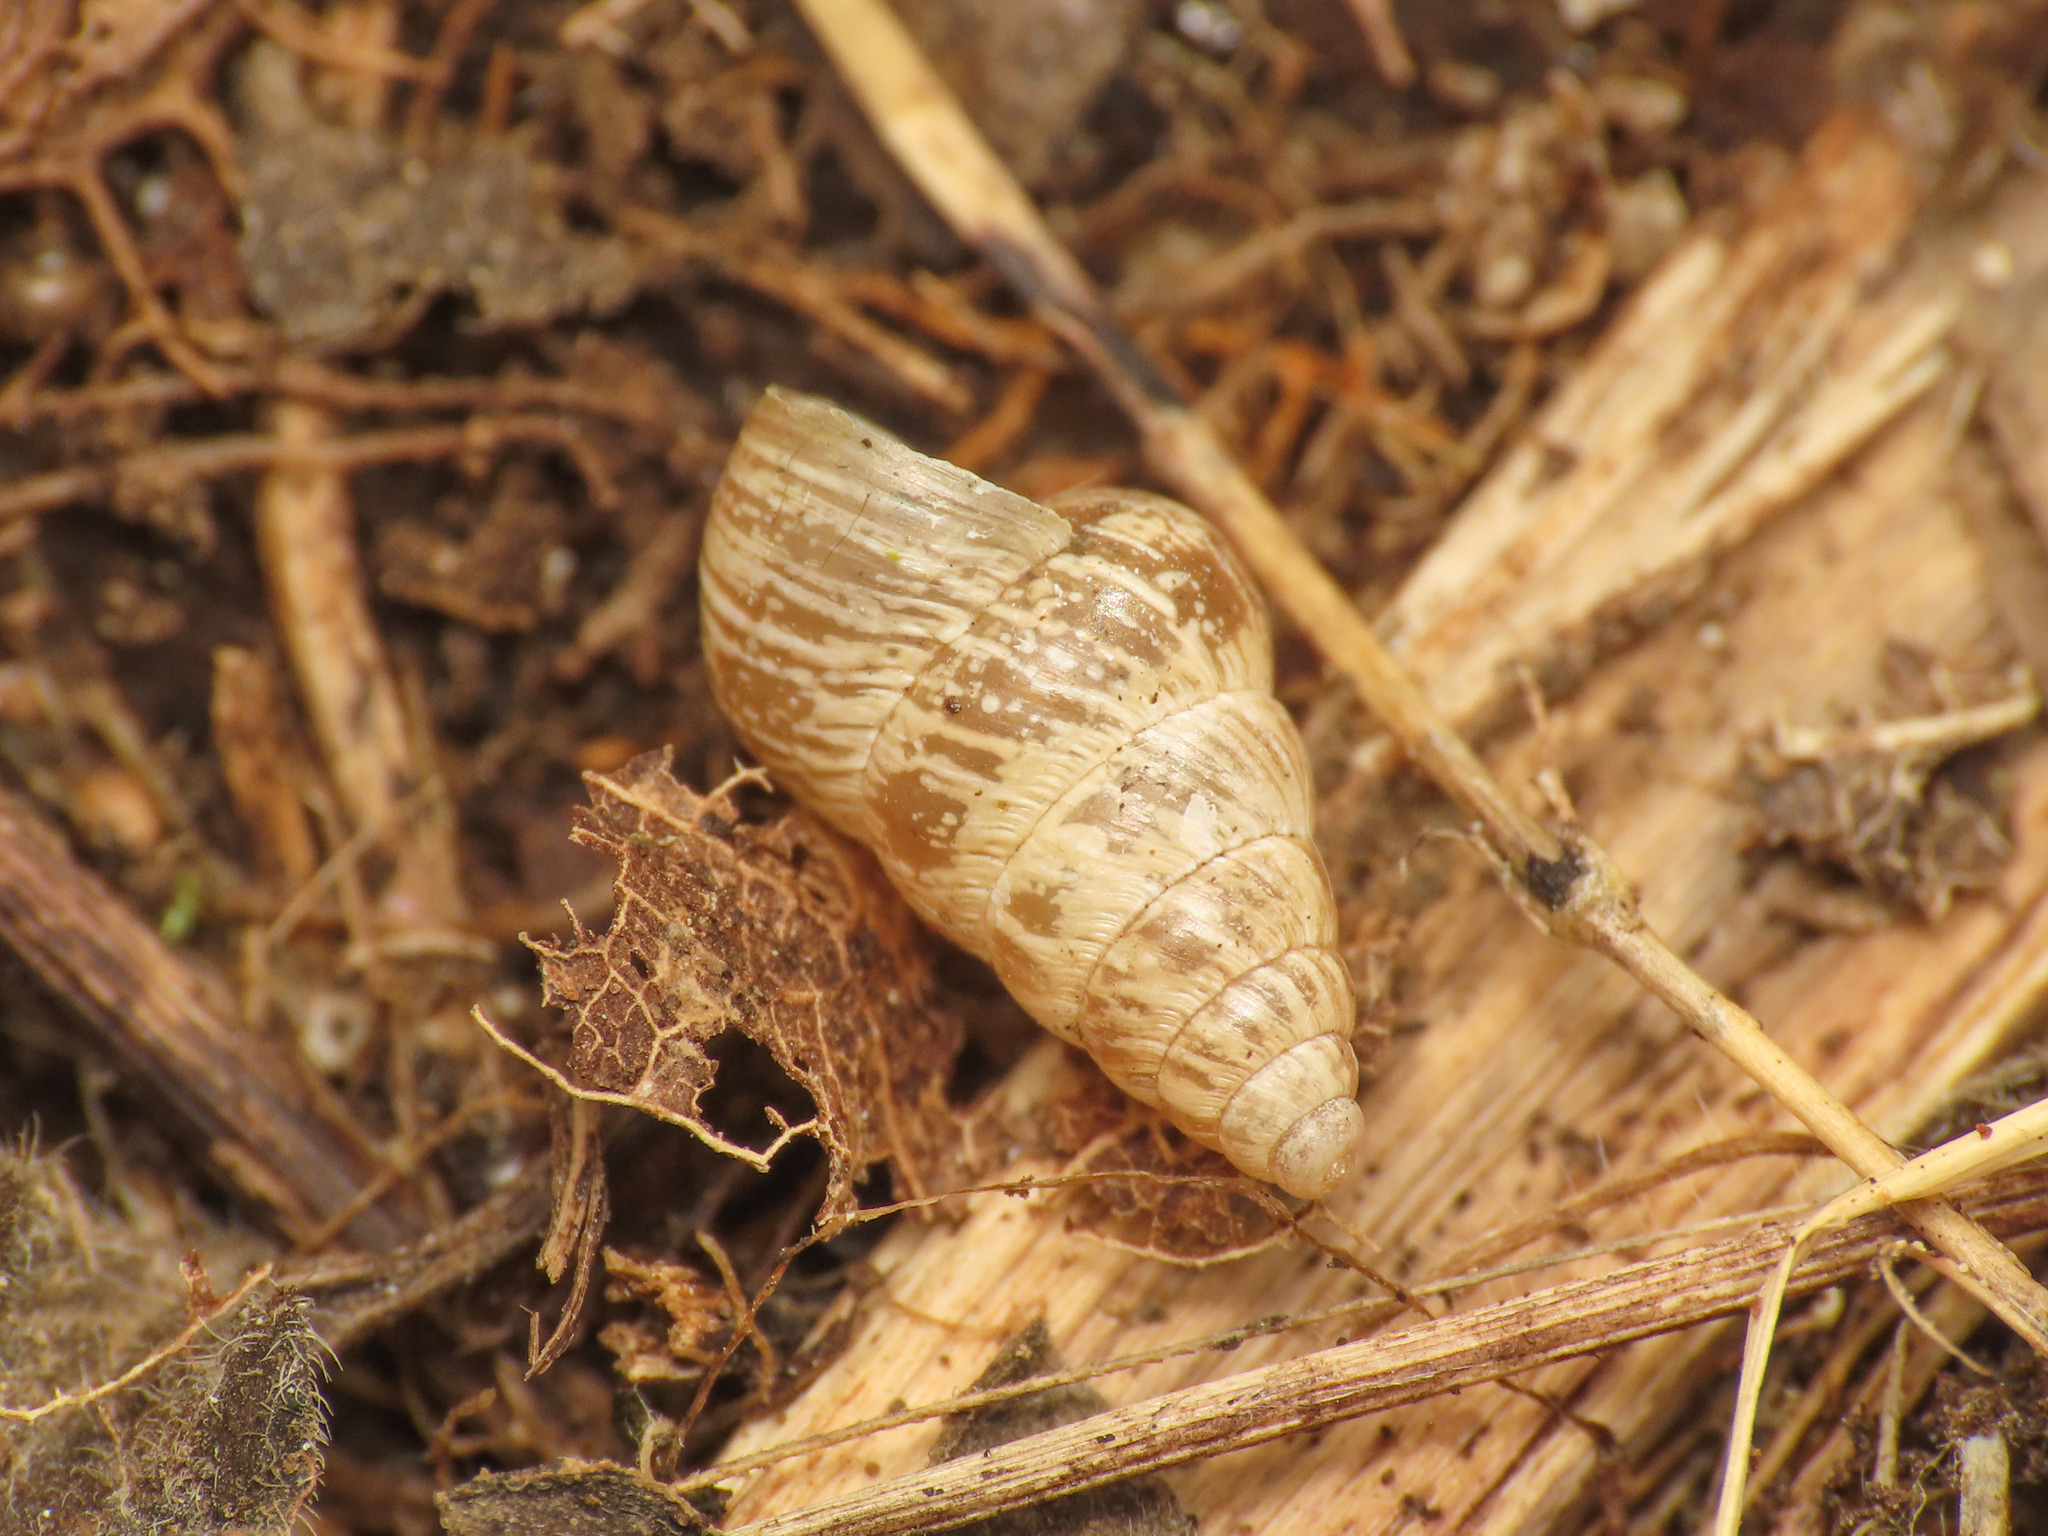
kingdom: Animalia
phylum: Mollusca
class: Gastropoda
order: Stylommatophora
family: Geomitridae
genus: Cochlicella
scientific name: Cochlicella barbara
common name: Potbellied helicellid
